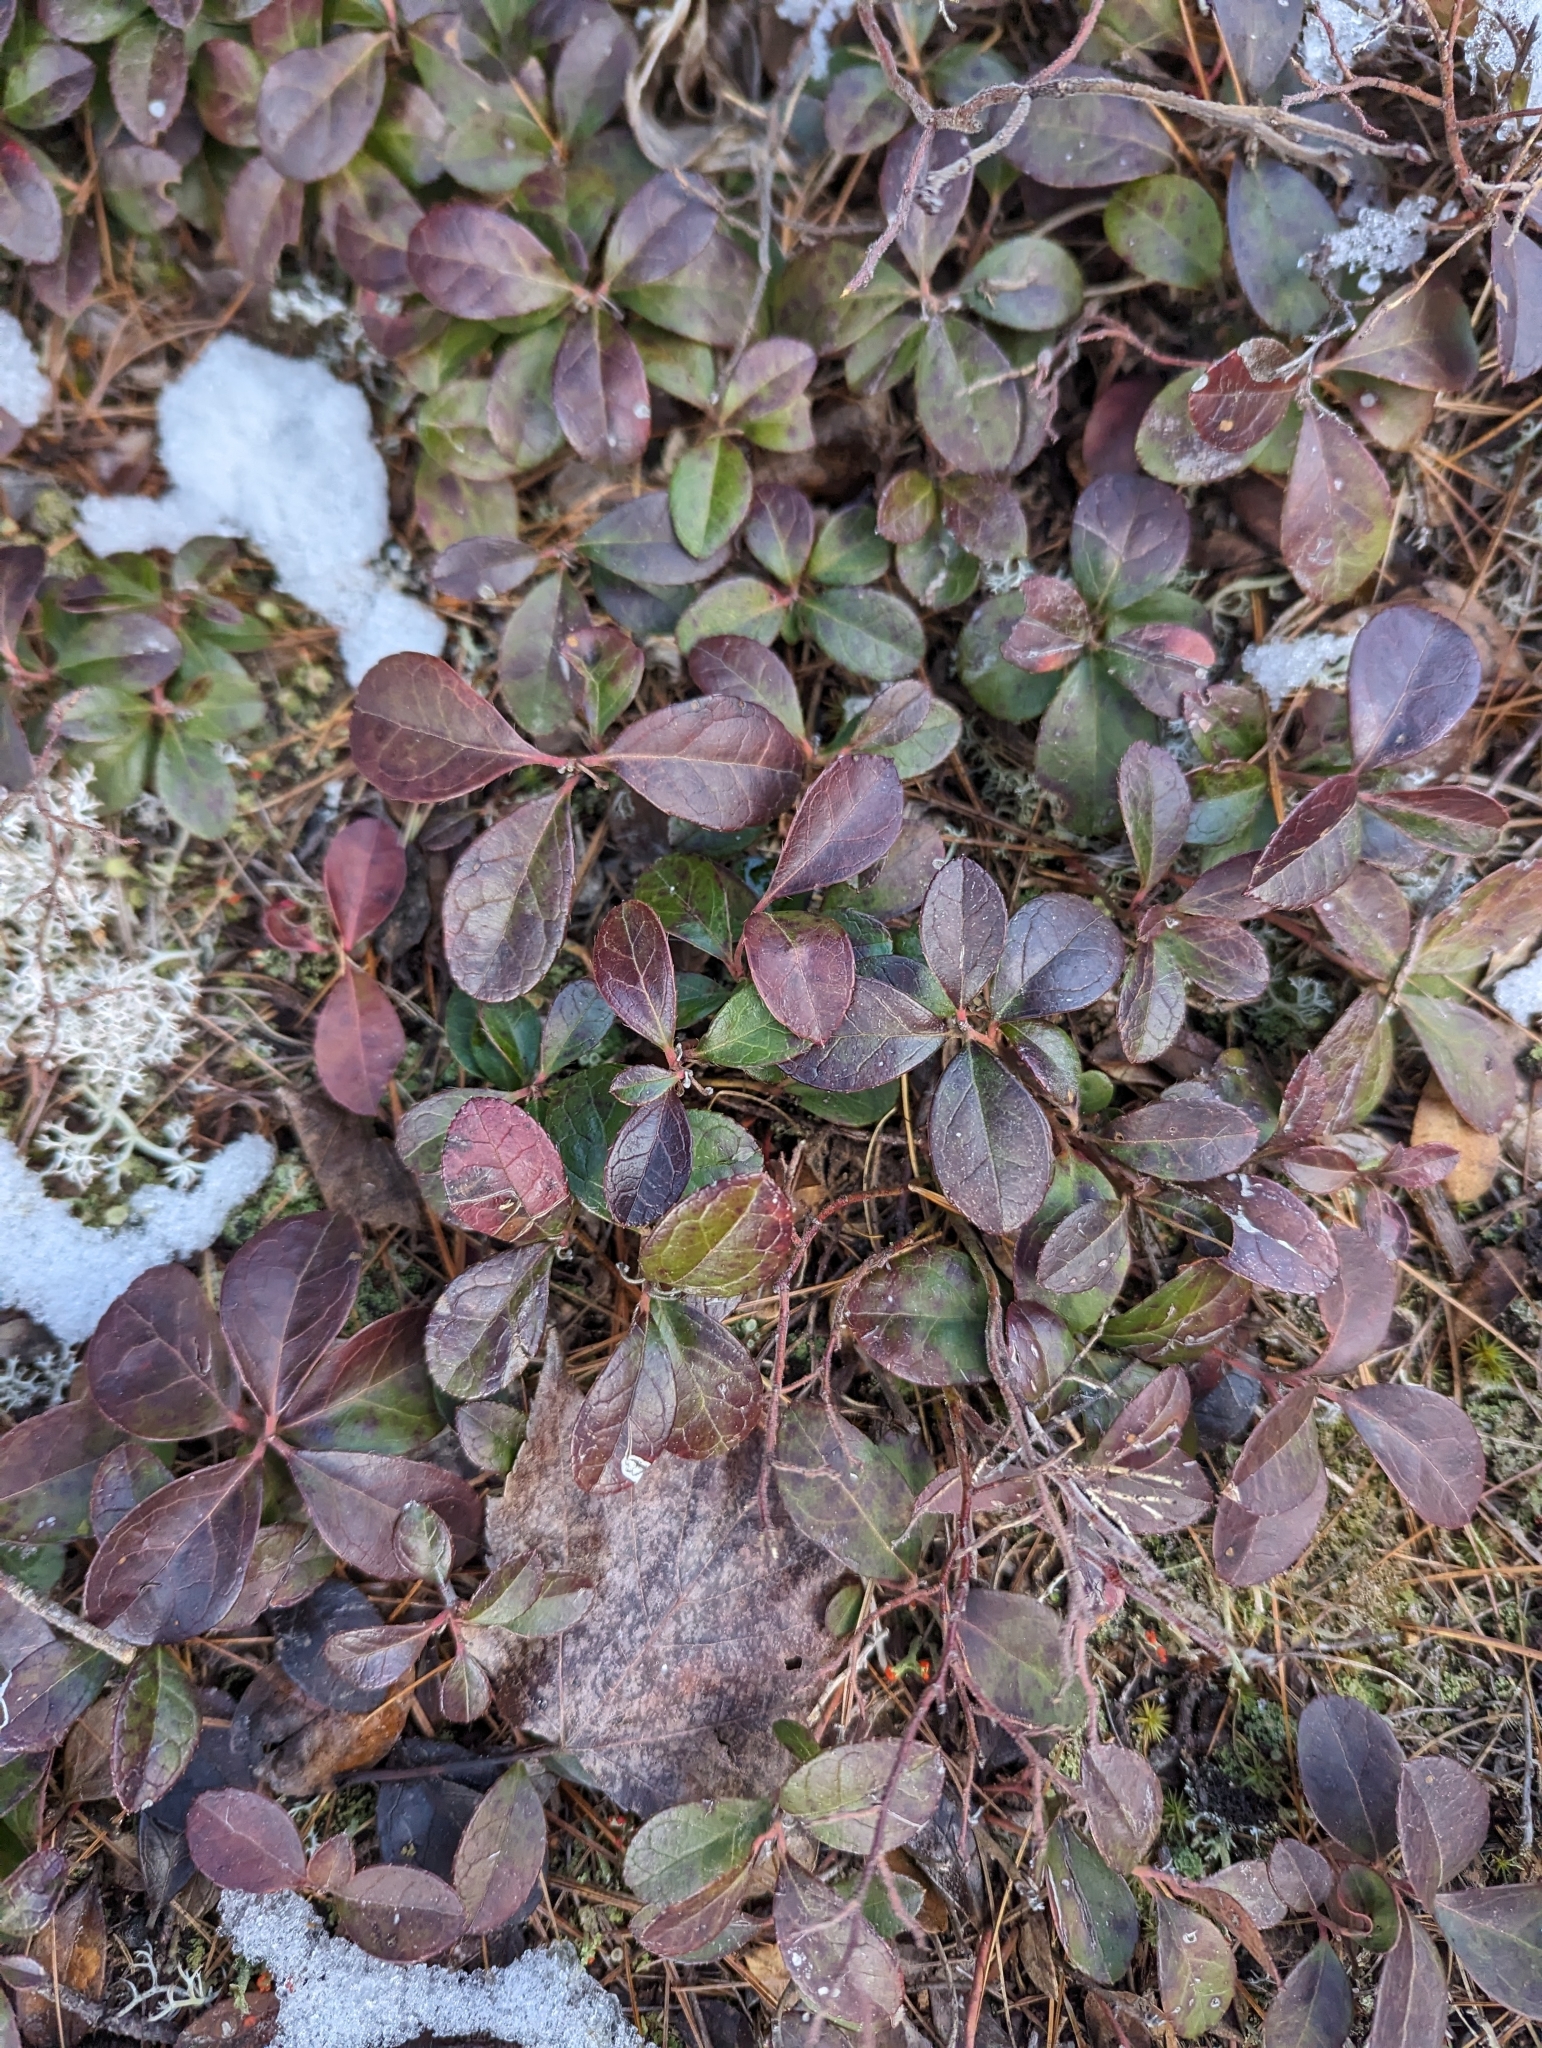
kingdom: Plantae
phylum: Tracheophyta
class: Magnoliopsida
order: Ericales
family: Ericaceae
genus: Gaultheria
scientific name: Gaultheria procumbens
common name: Checkerberry
